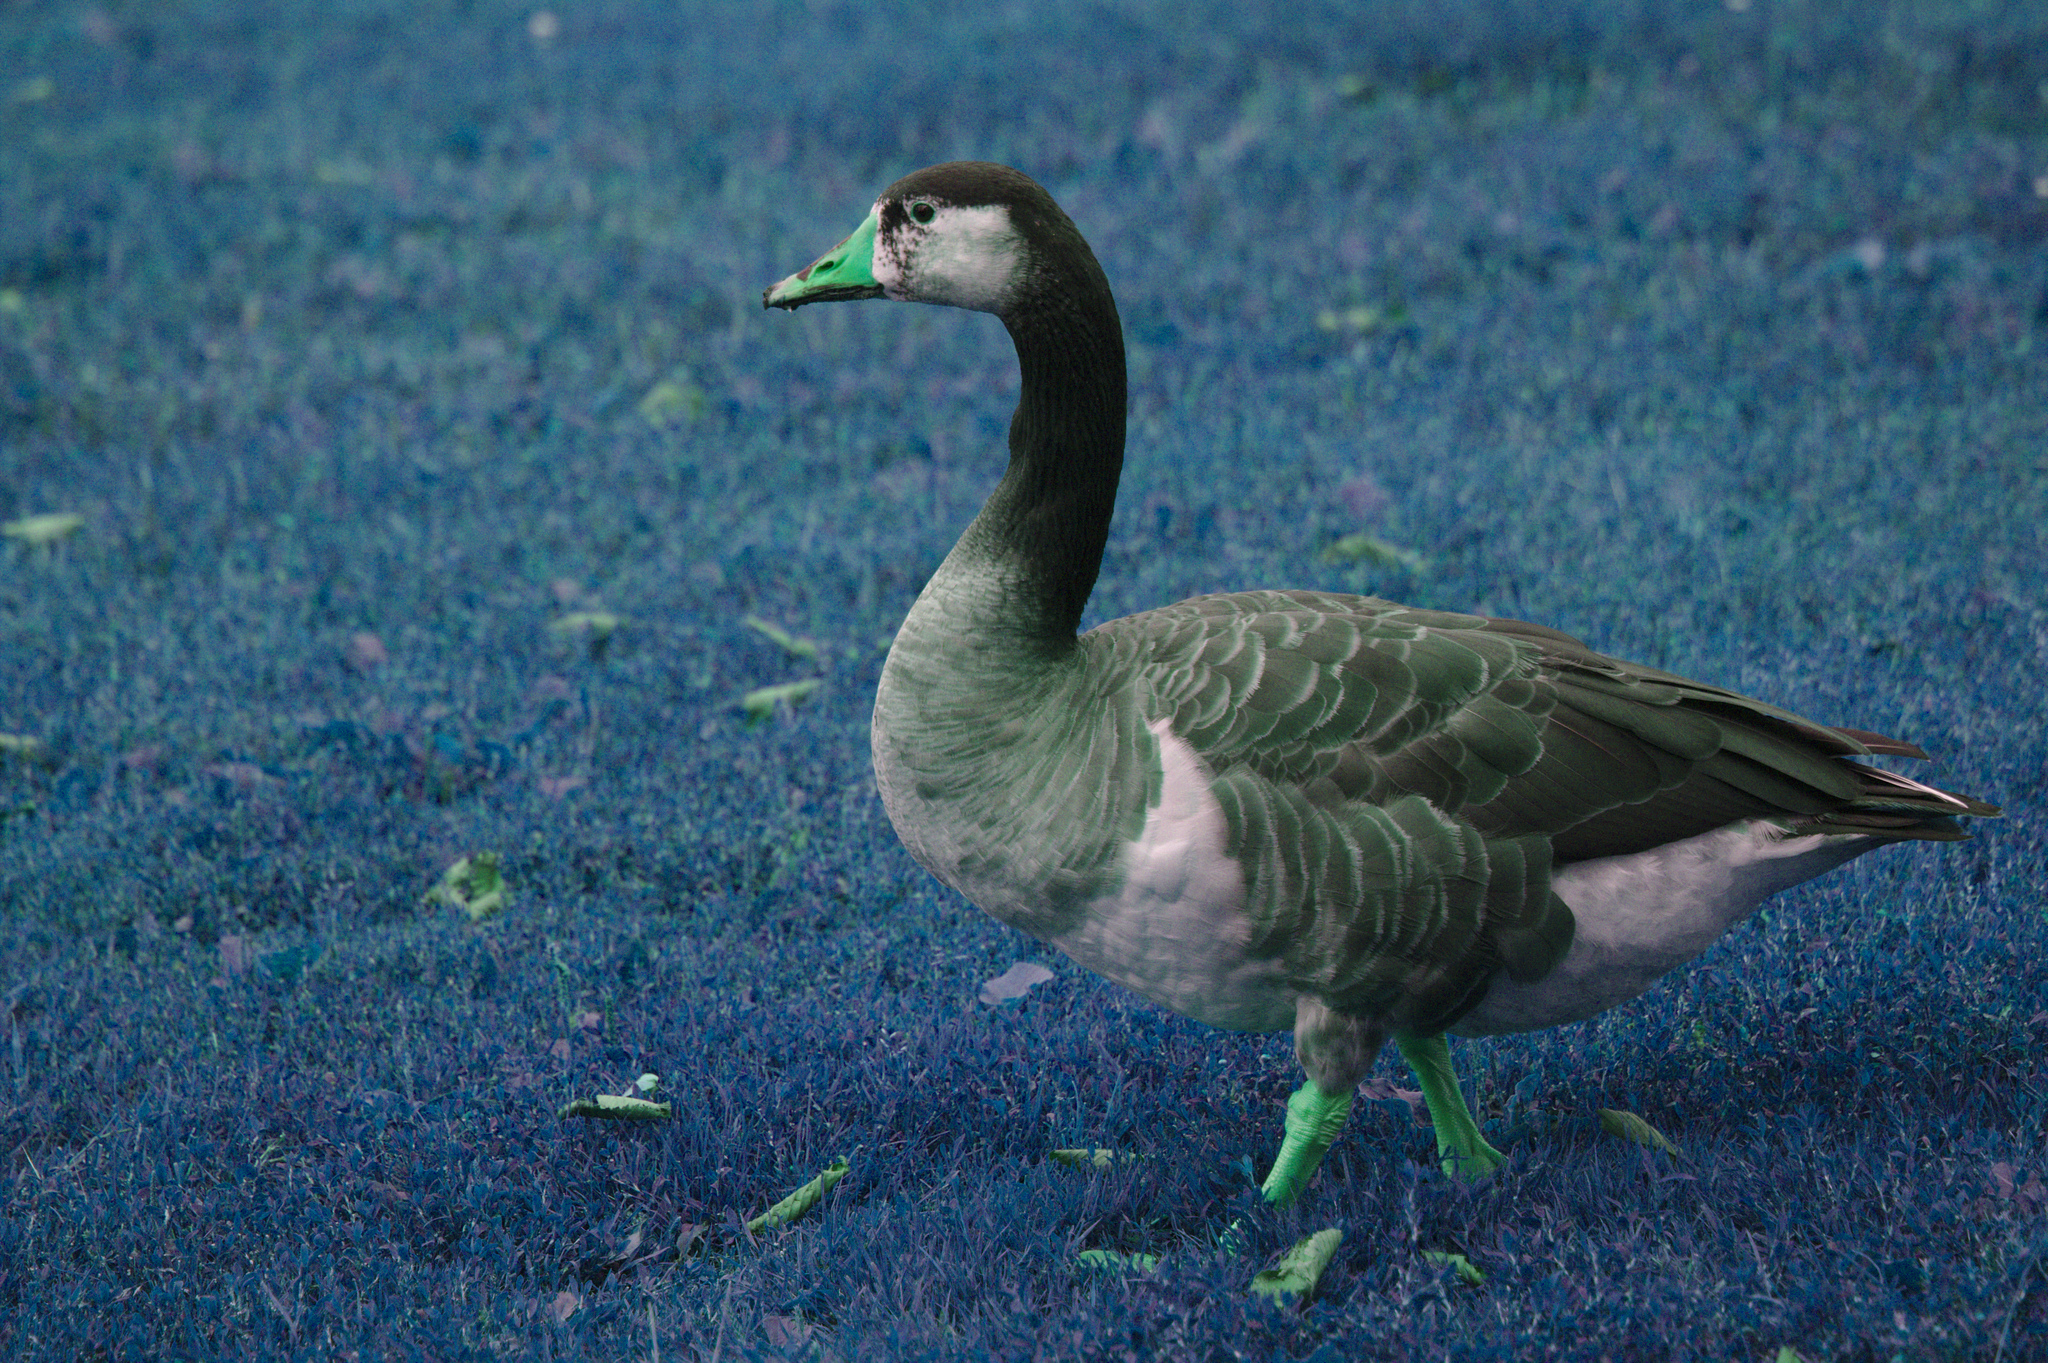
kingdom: Animalia
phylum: Chordata
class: Aves
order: Anseriformes
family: Anatidae
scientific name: Anatidae
